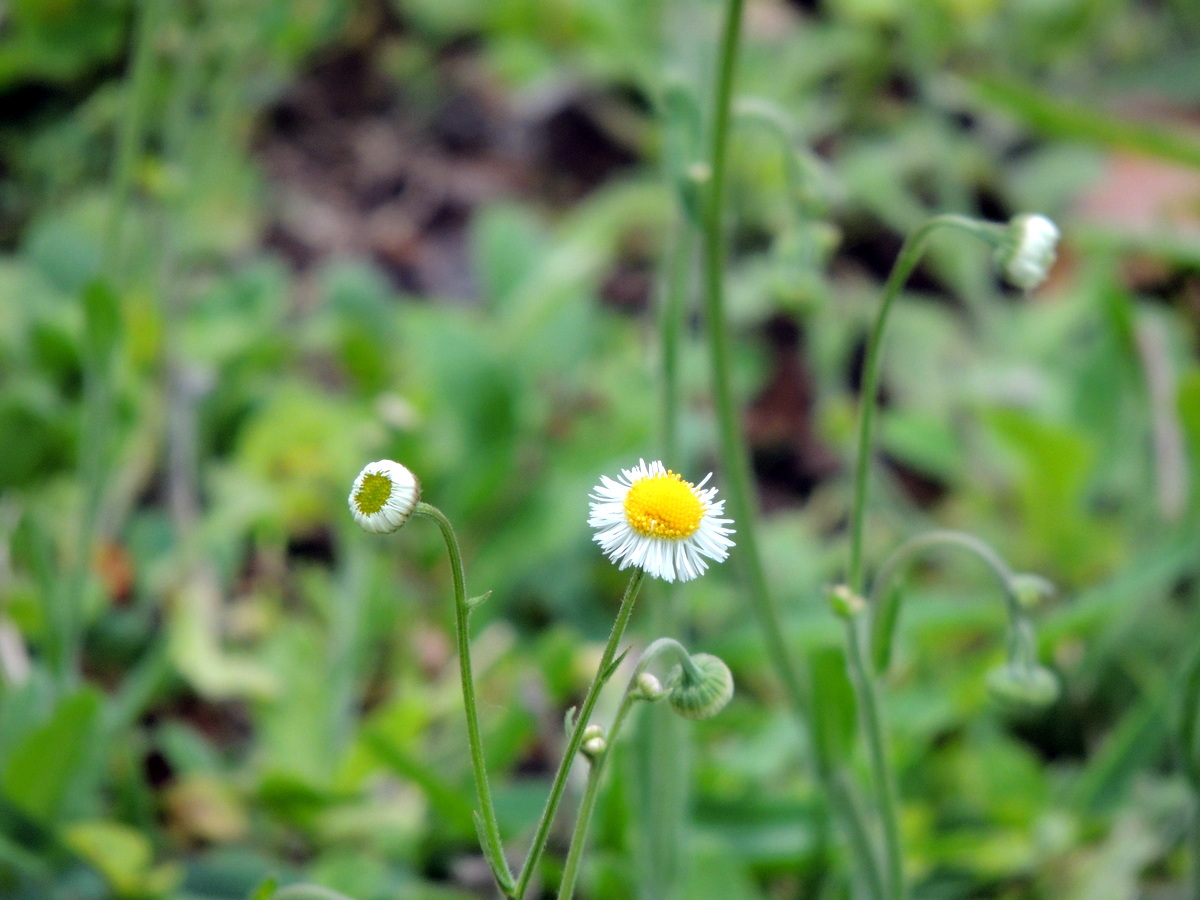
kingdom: Plantae
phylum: Tracheophyta
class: Magnoliopsida
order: Asterales
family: Asteraceae
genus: Erigeron
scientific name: Erigeron quercifolius
